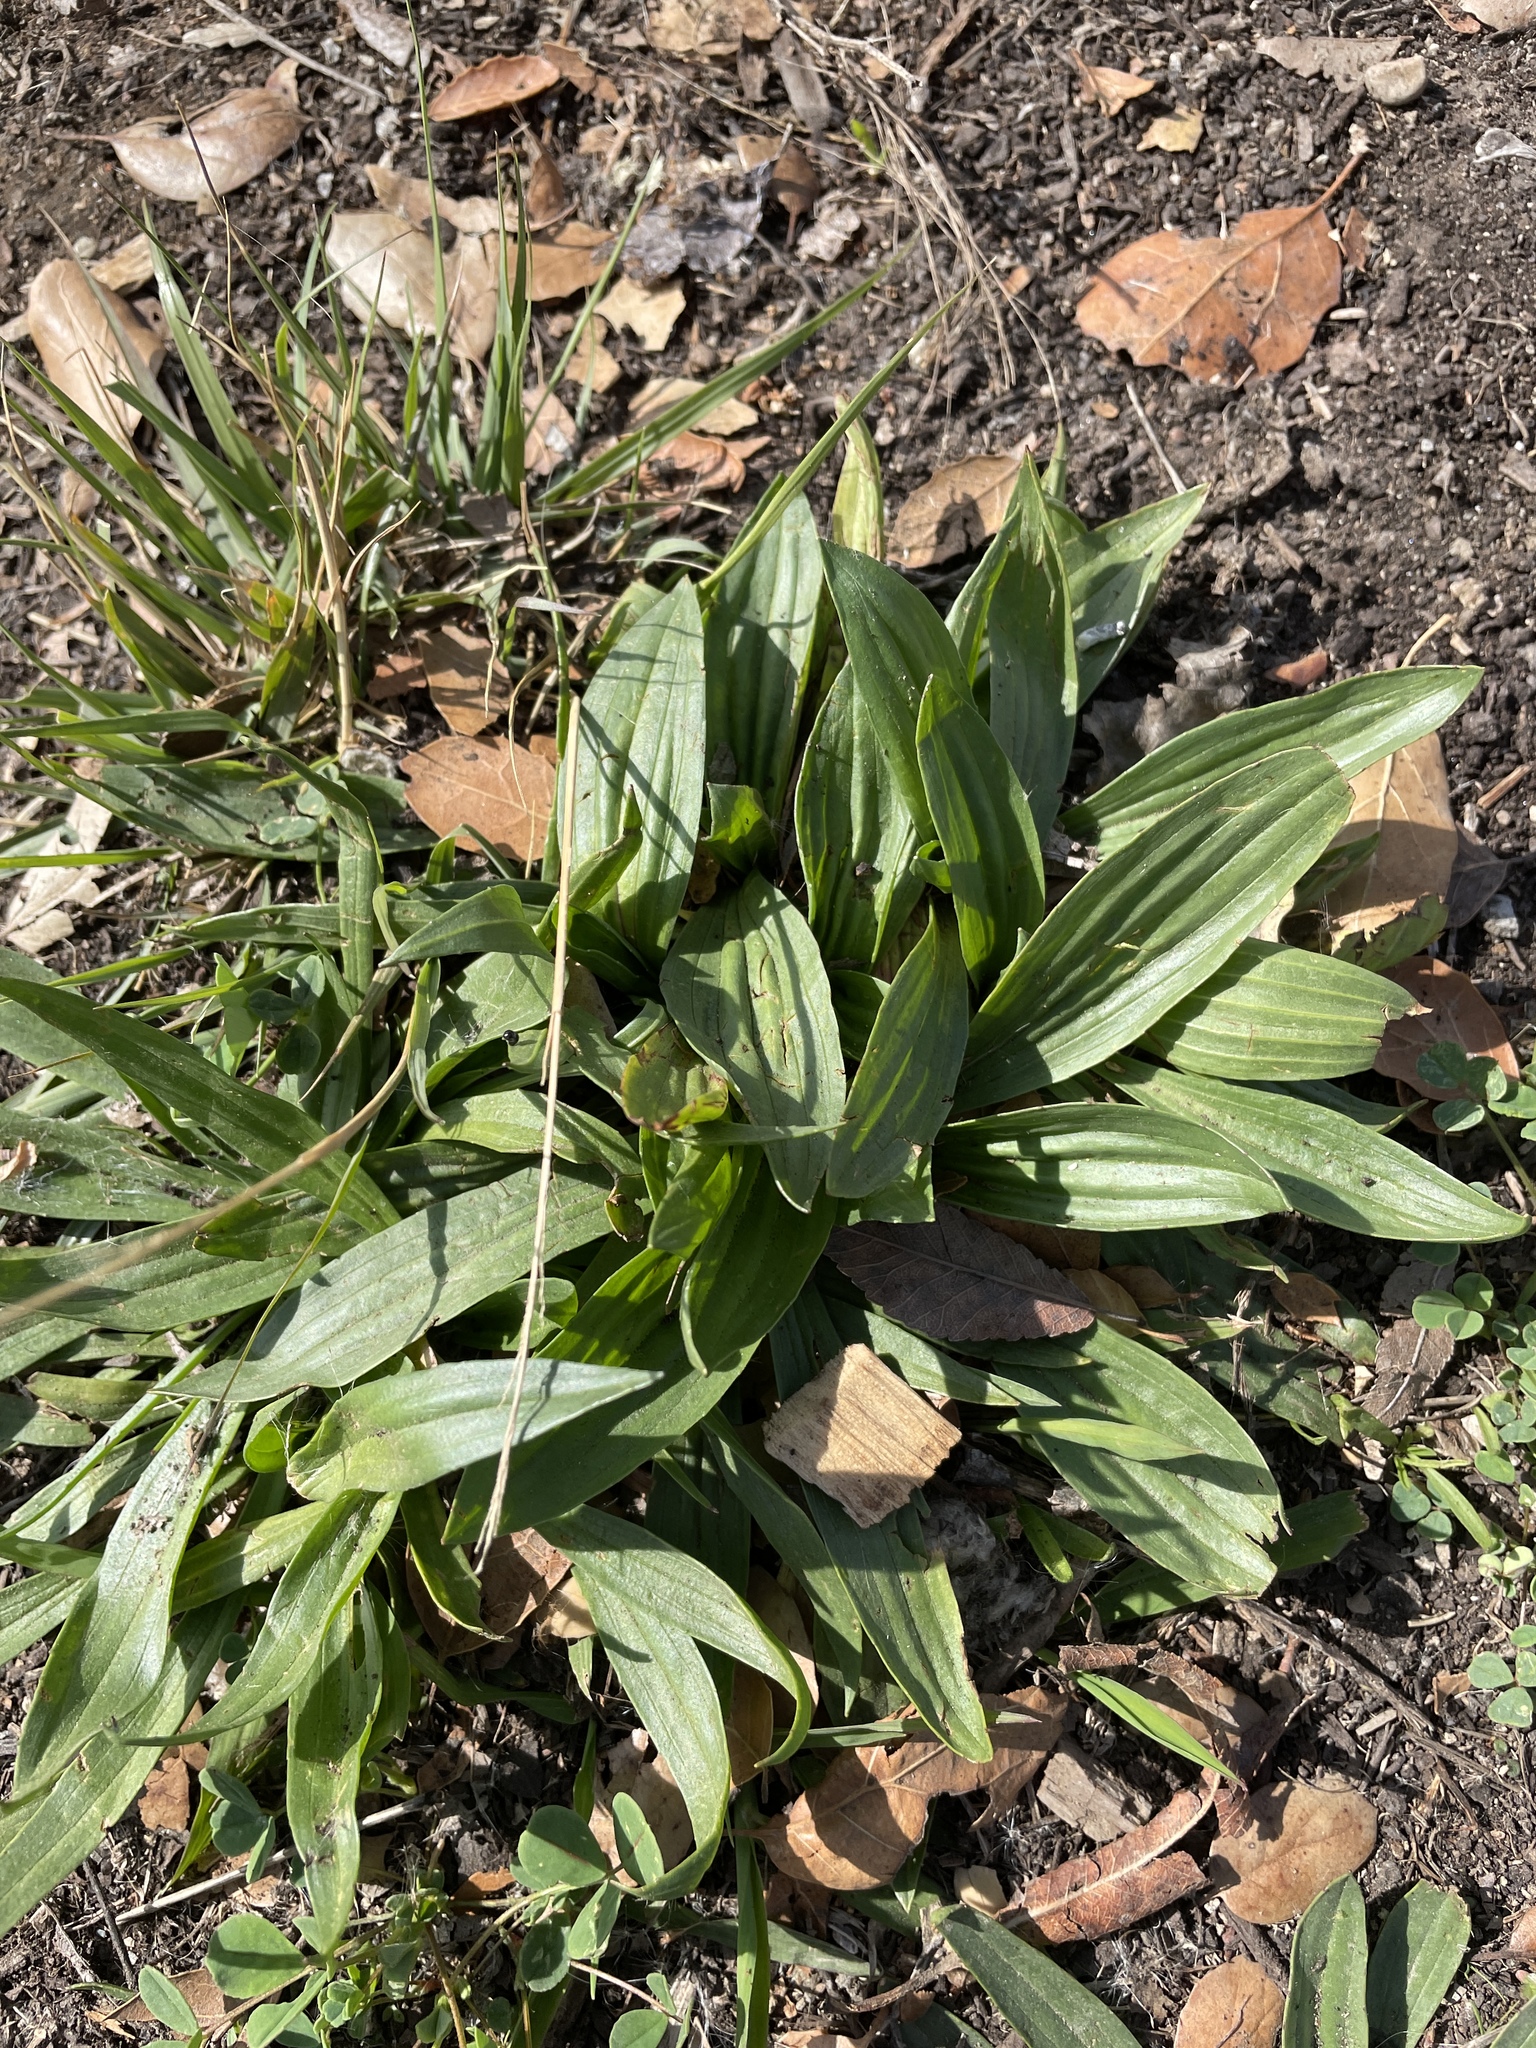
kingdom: Plantae
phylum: Tracheophyta
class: Magnoliopsida
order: Lamiales
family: Plantaginaceae
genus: Plantago
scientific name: Plantago lanceolata
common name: Ribwort plantain
